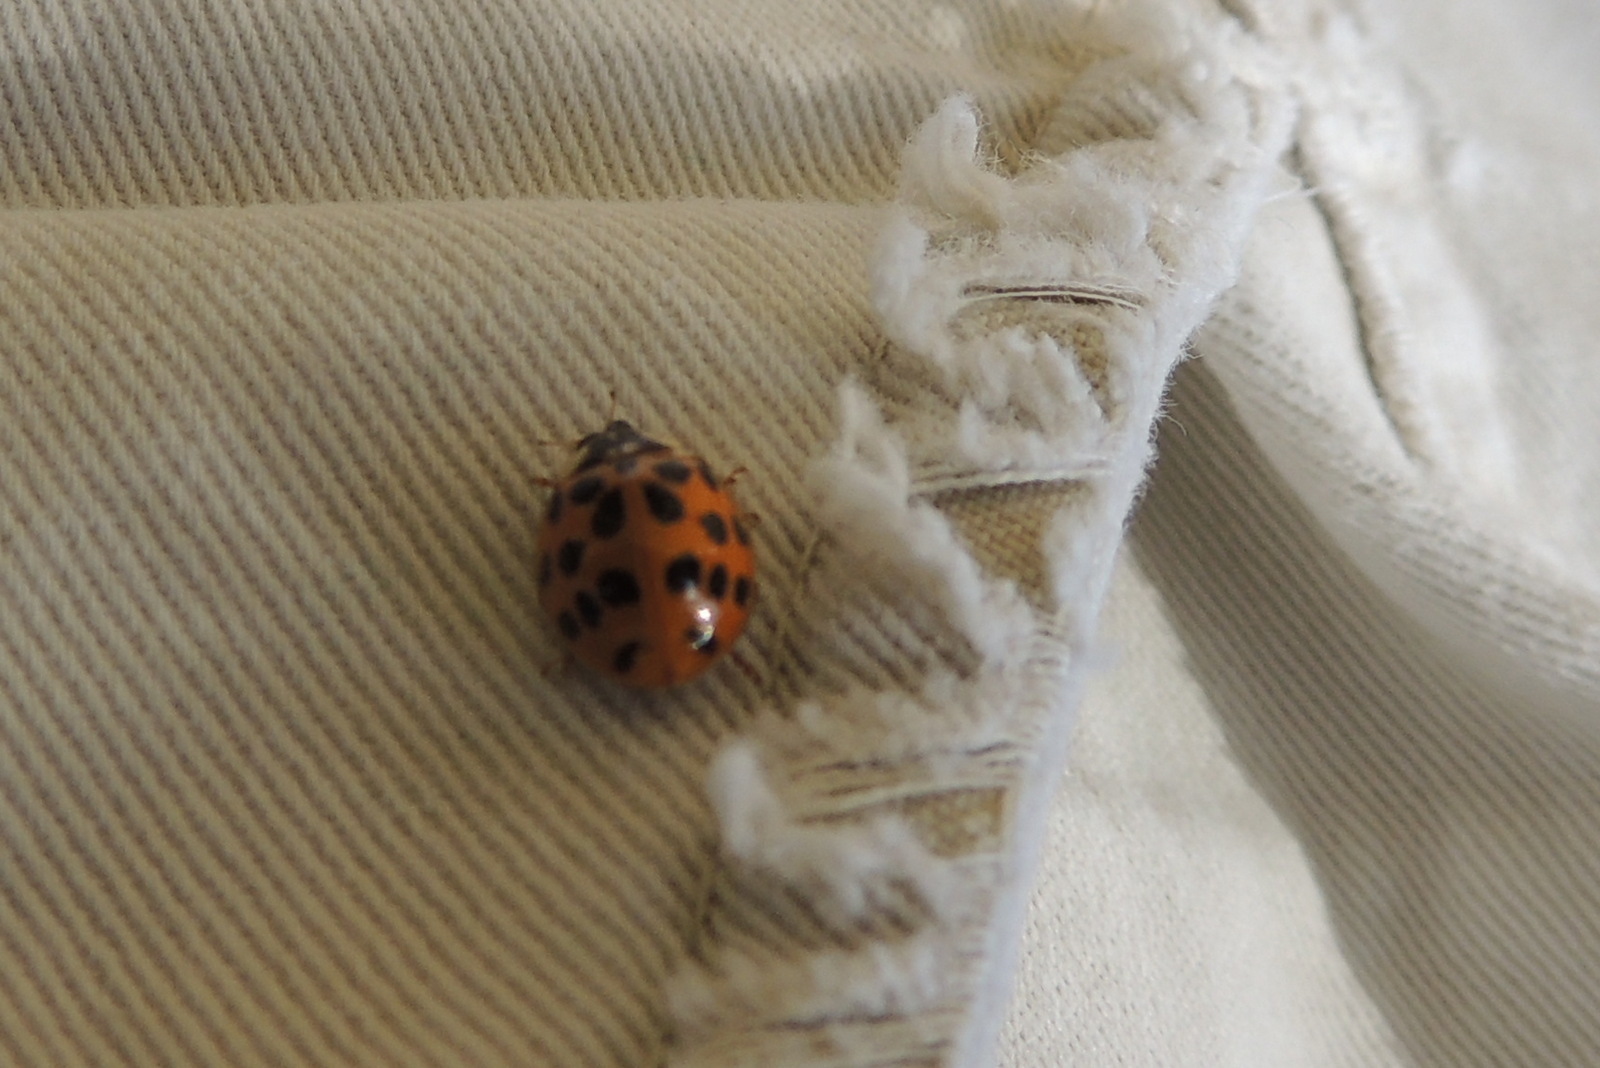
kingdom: Animalia
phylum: Arthropoda
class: Insecta
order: Coleoptera
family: Coccinellidae
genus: Harmonia
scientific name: Harmonia axyridis
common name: Harlequin ladybird
